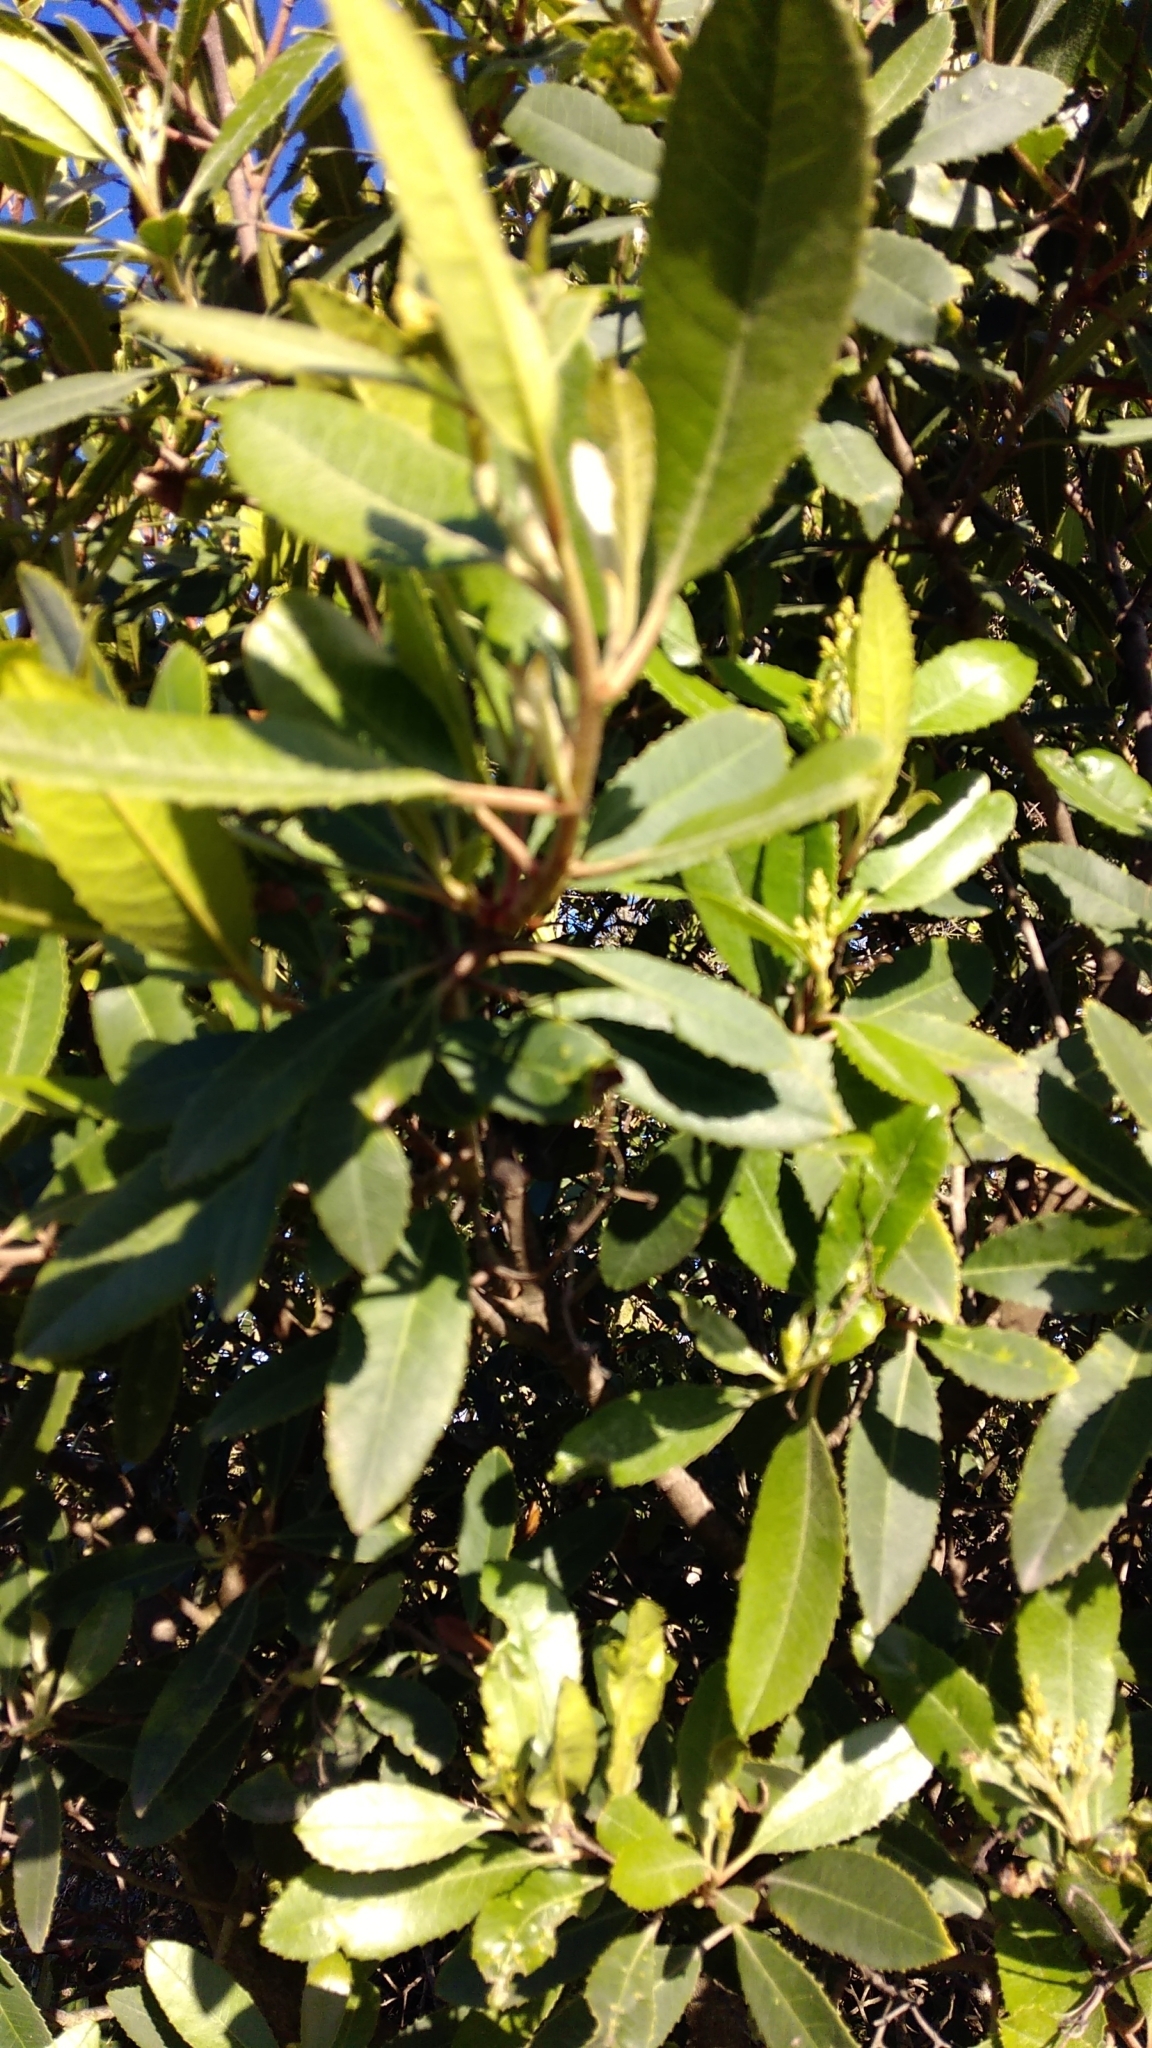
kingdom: Plantae
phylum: Tracheophyta
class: Magnoliopsida
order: Rosales
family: Rosaceae
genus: Heteromeles
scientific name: Heteromeles arbutifolia
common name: California-holly
